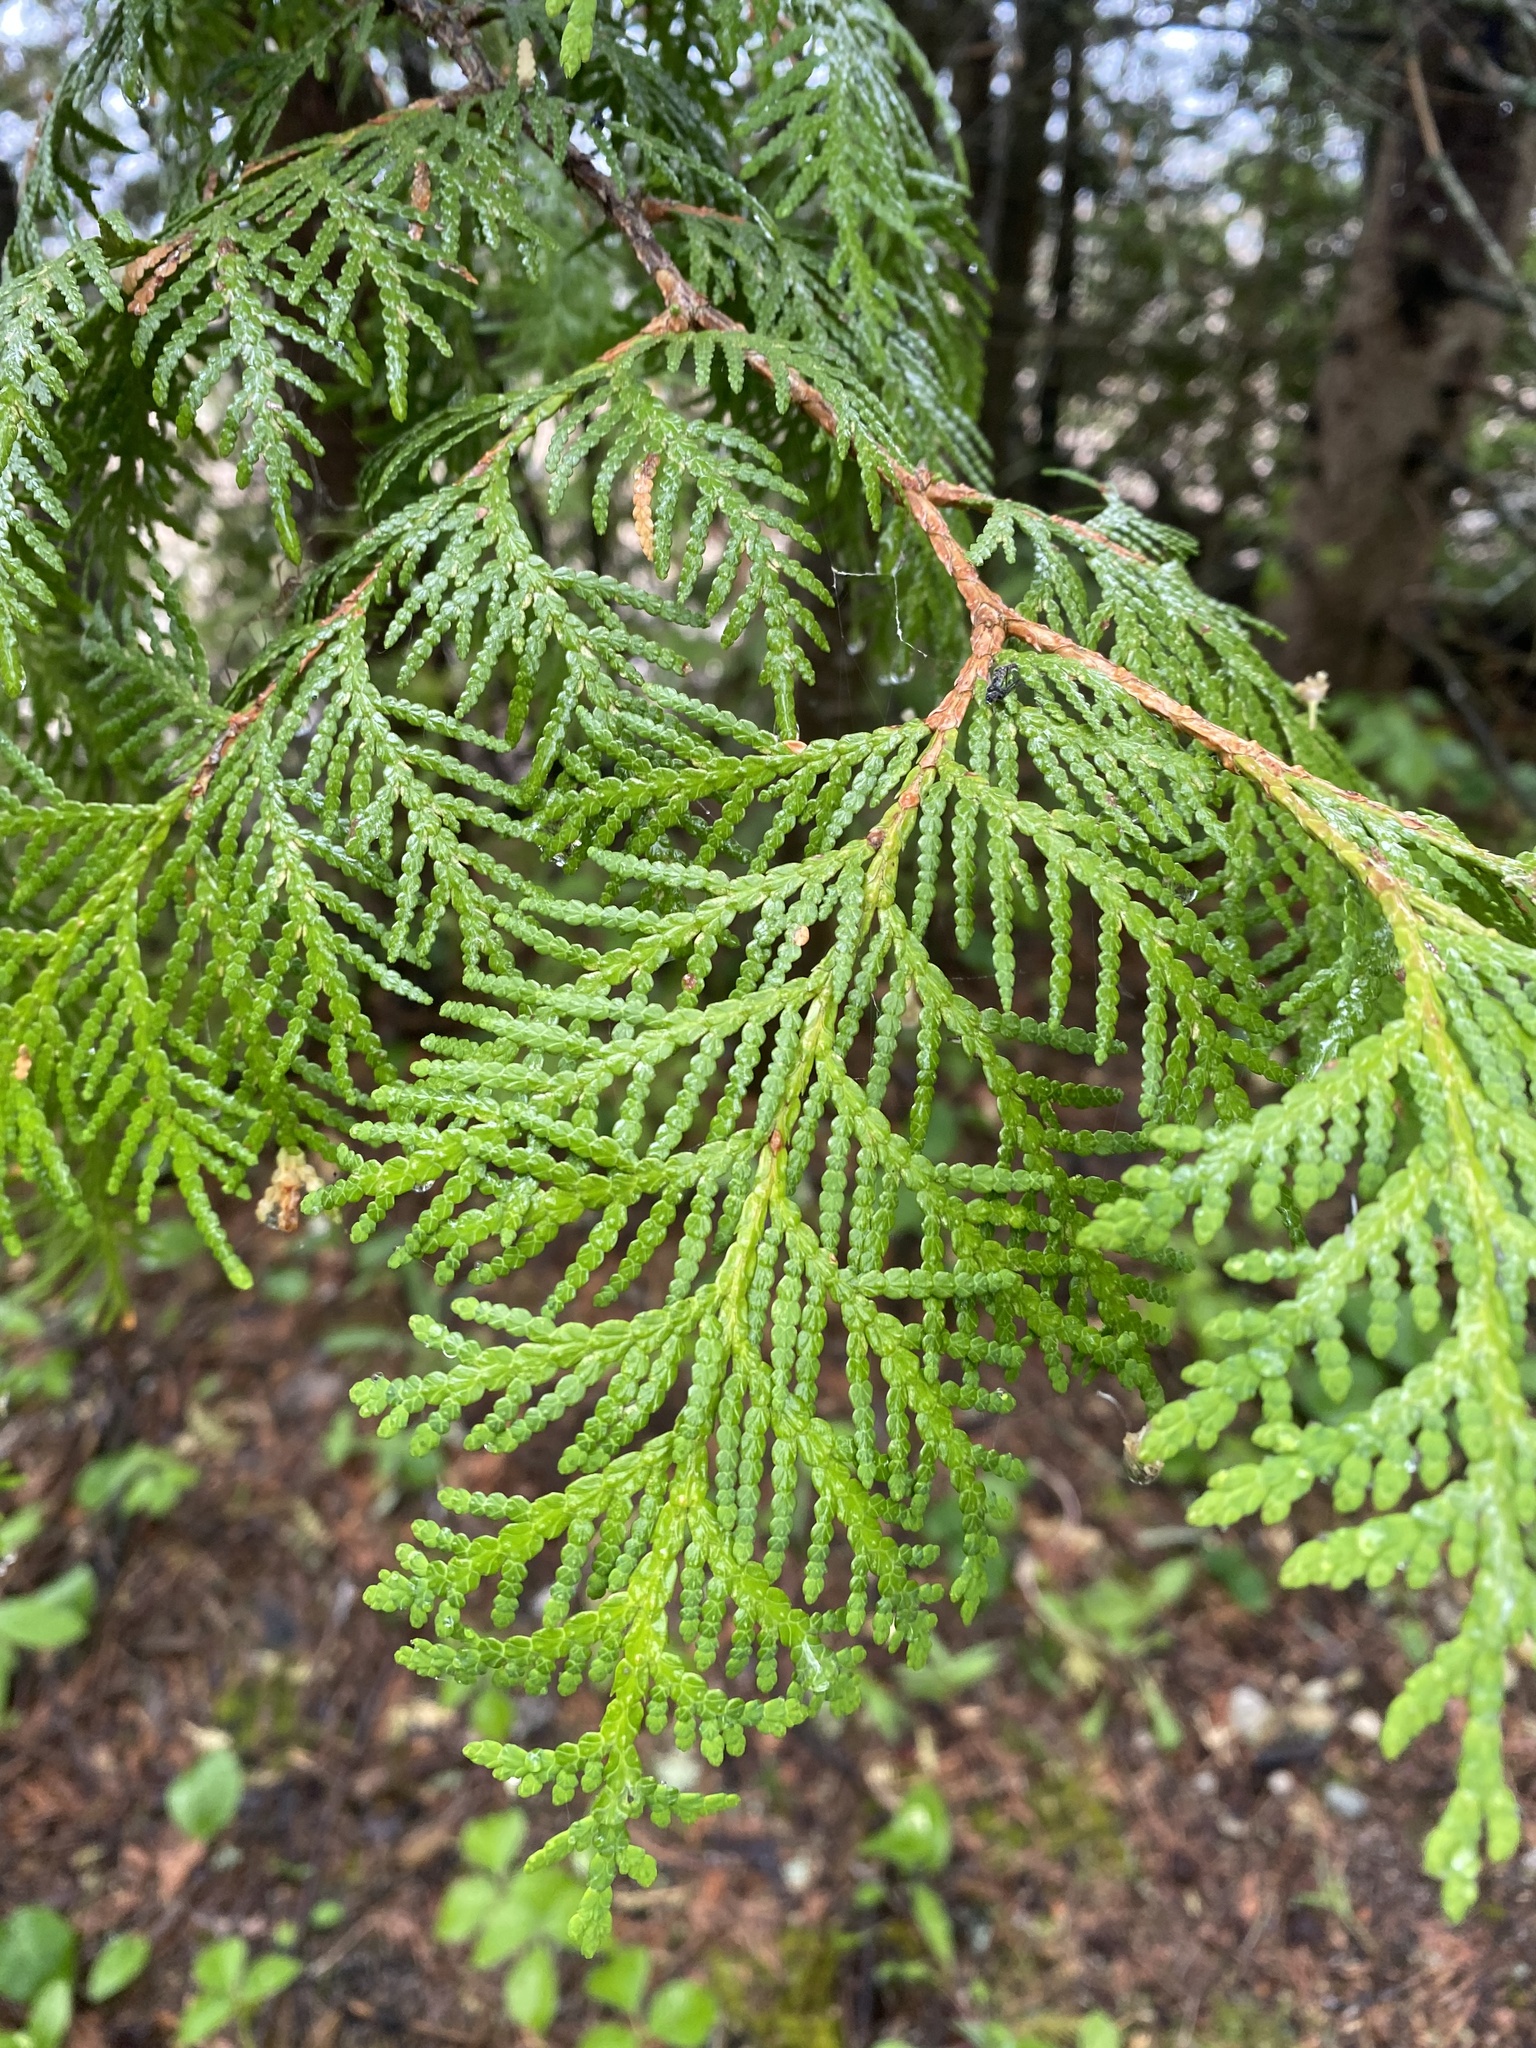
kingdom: Plantae
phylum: Tracheophyta
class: Pinopsida
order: Pinales
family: Cupressaceae
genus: Thuja
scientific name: Thuja occidentalis
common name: Northern white-cedar
